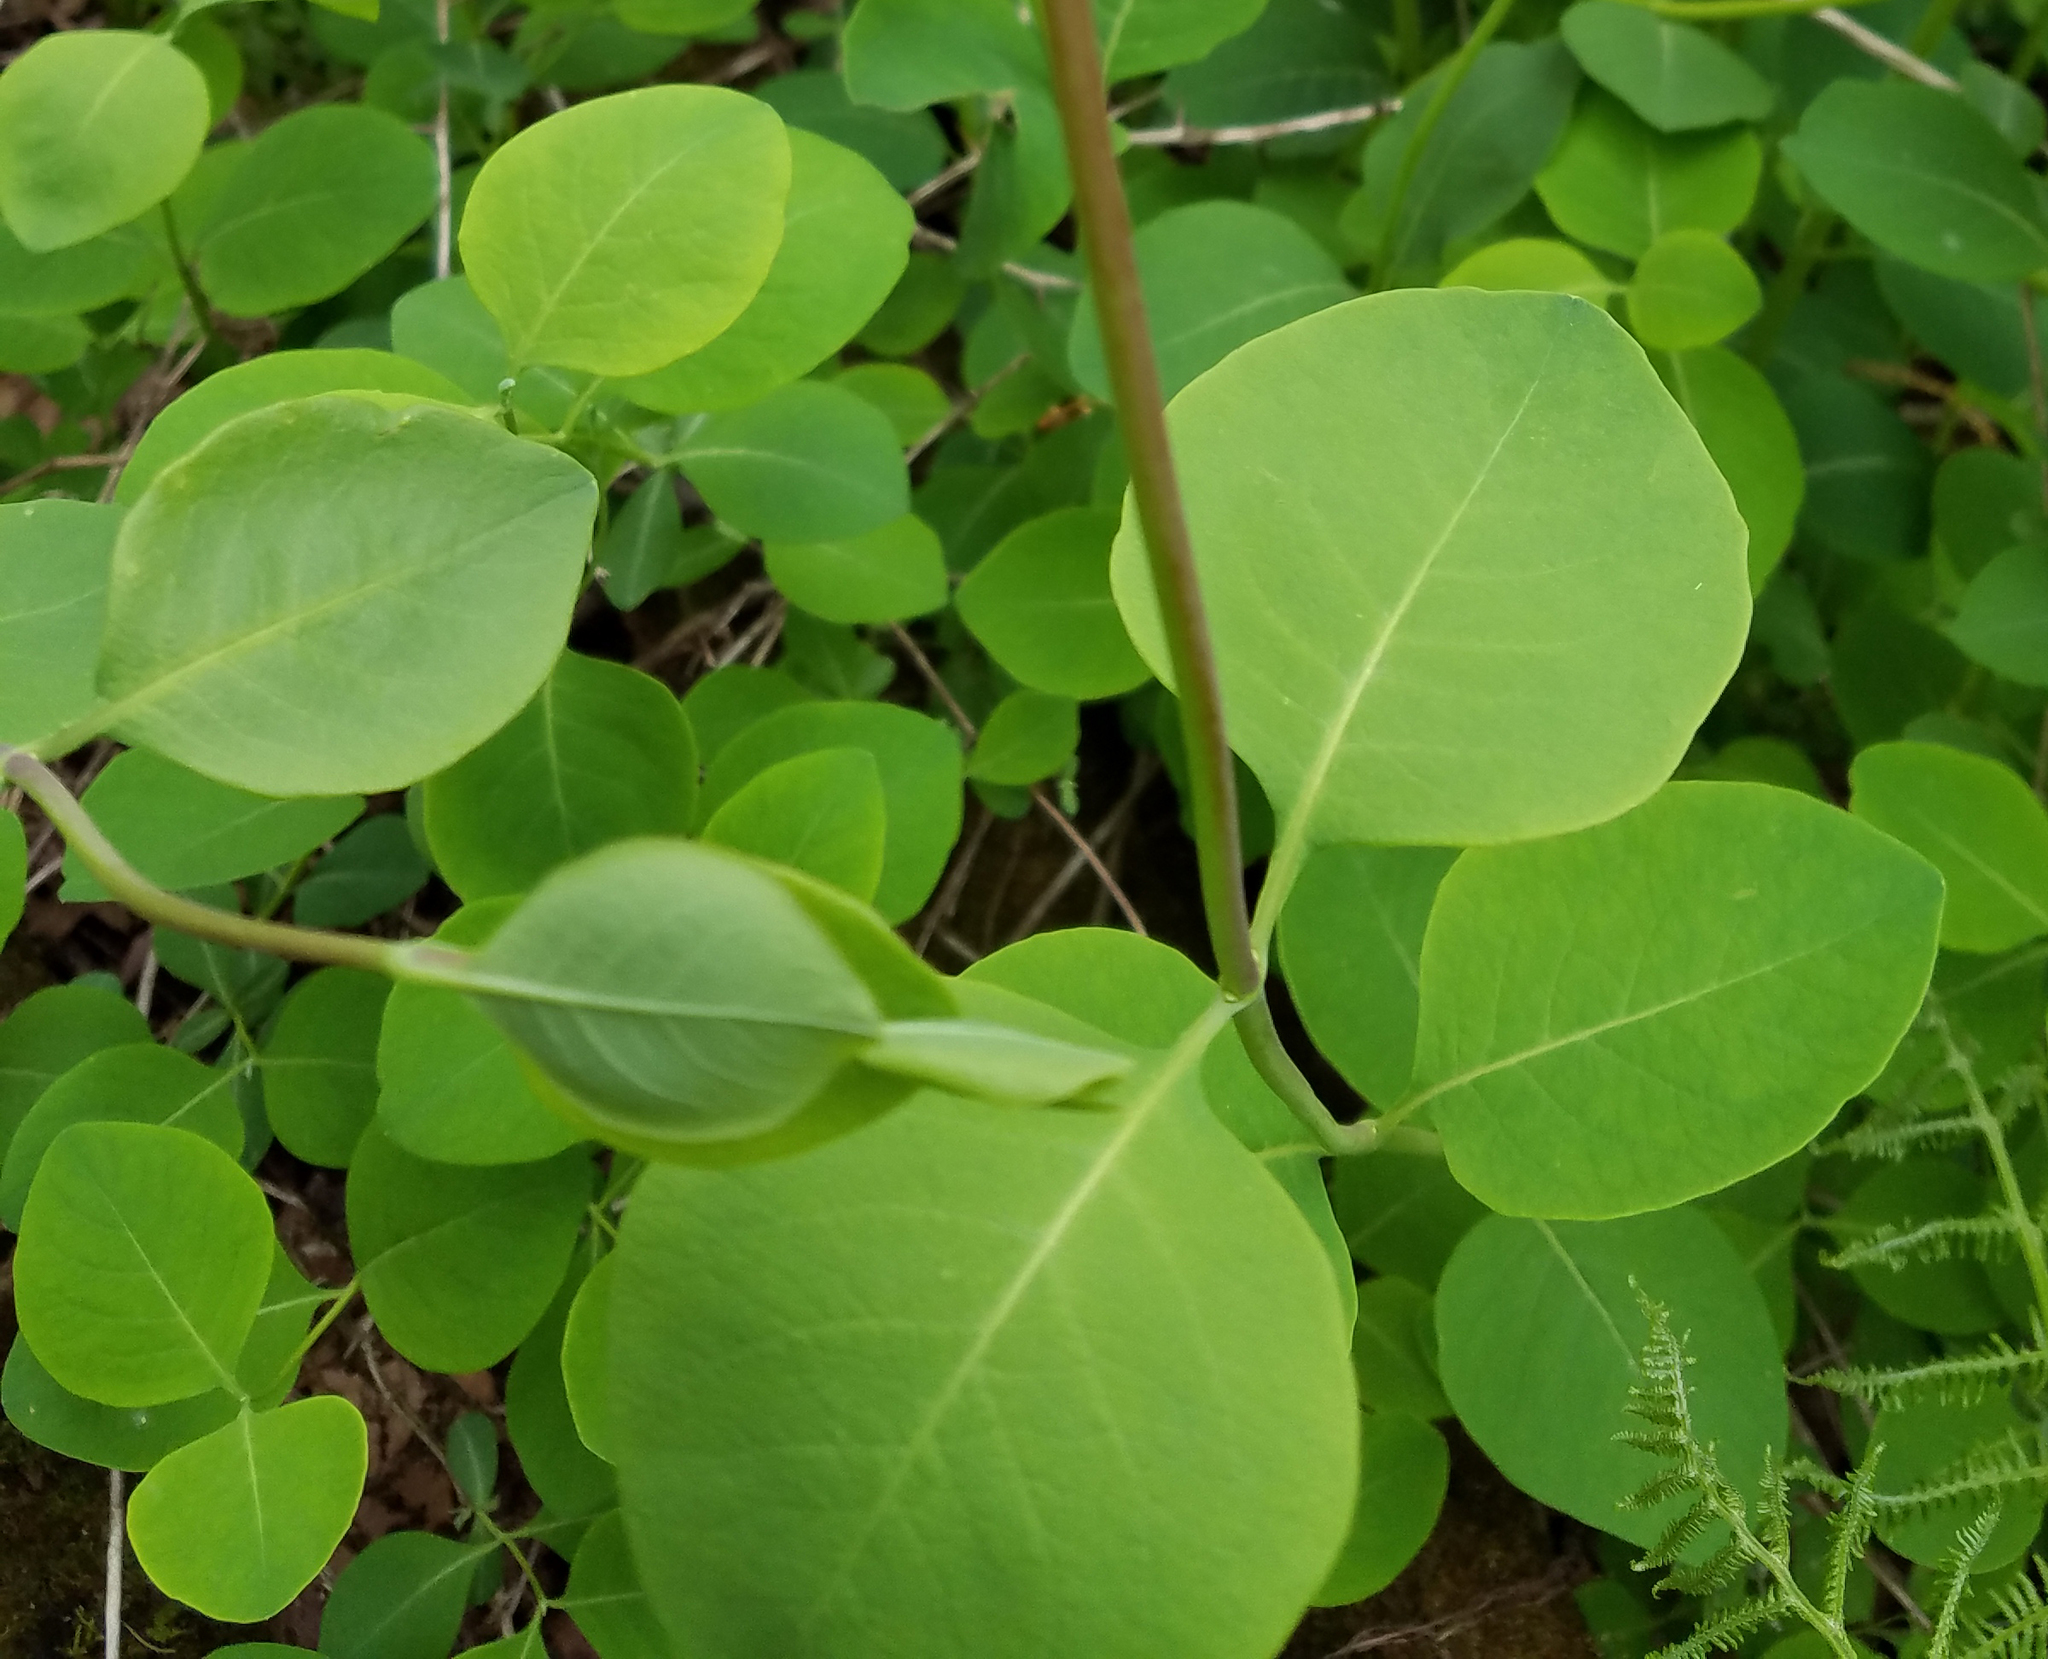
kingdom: Plantae
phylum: Tracheophyta
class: Magnoliopsida
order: Dipsacales
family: Caprifoliaceae
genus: Lonicera
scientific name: Lonicera reticulata
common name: Grape honeysuckle
